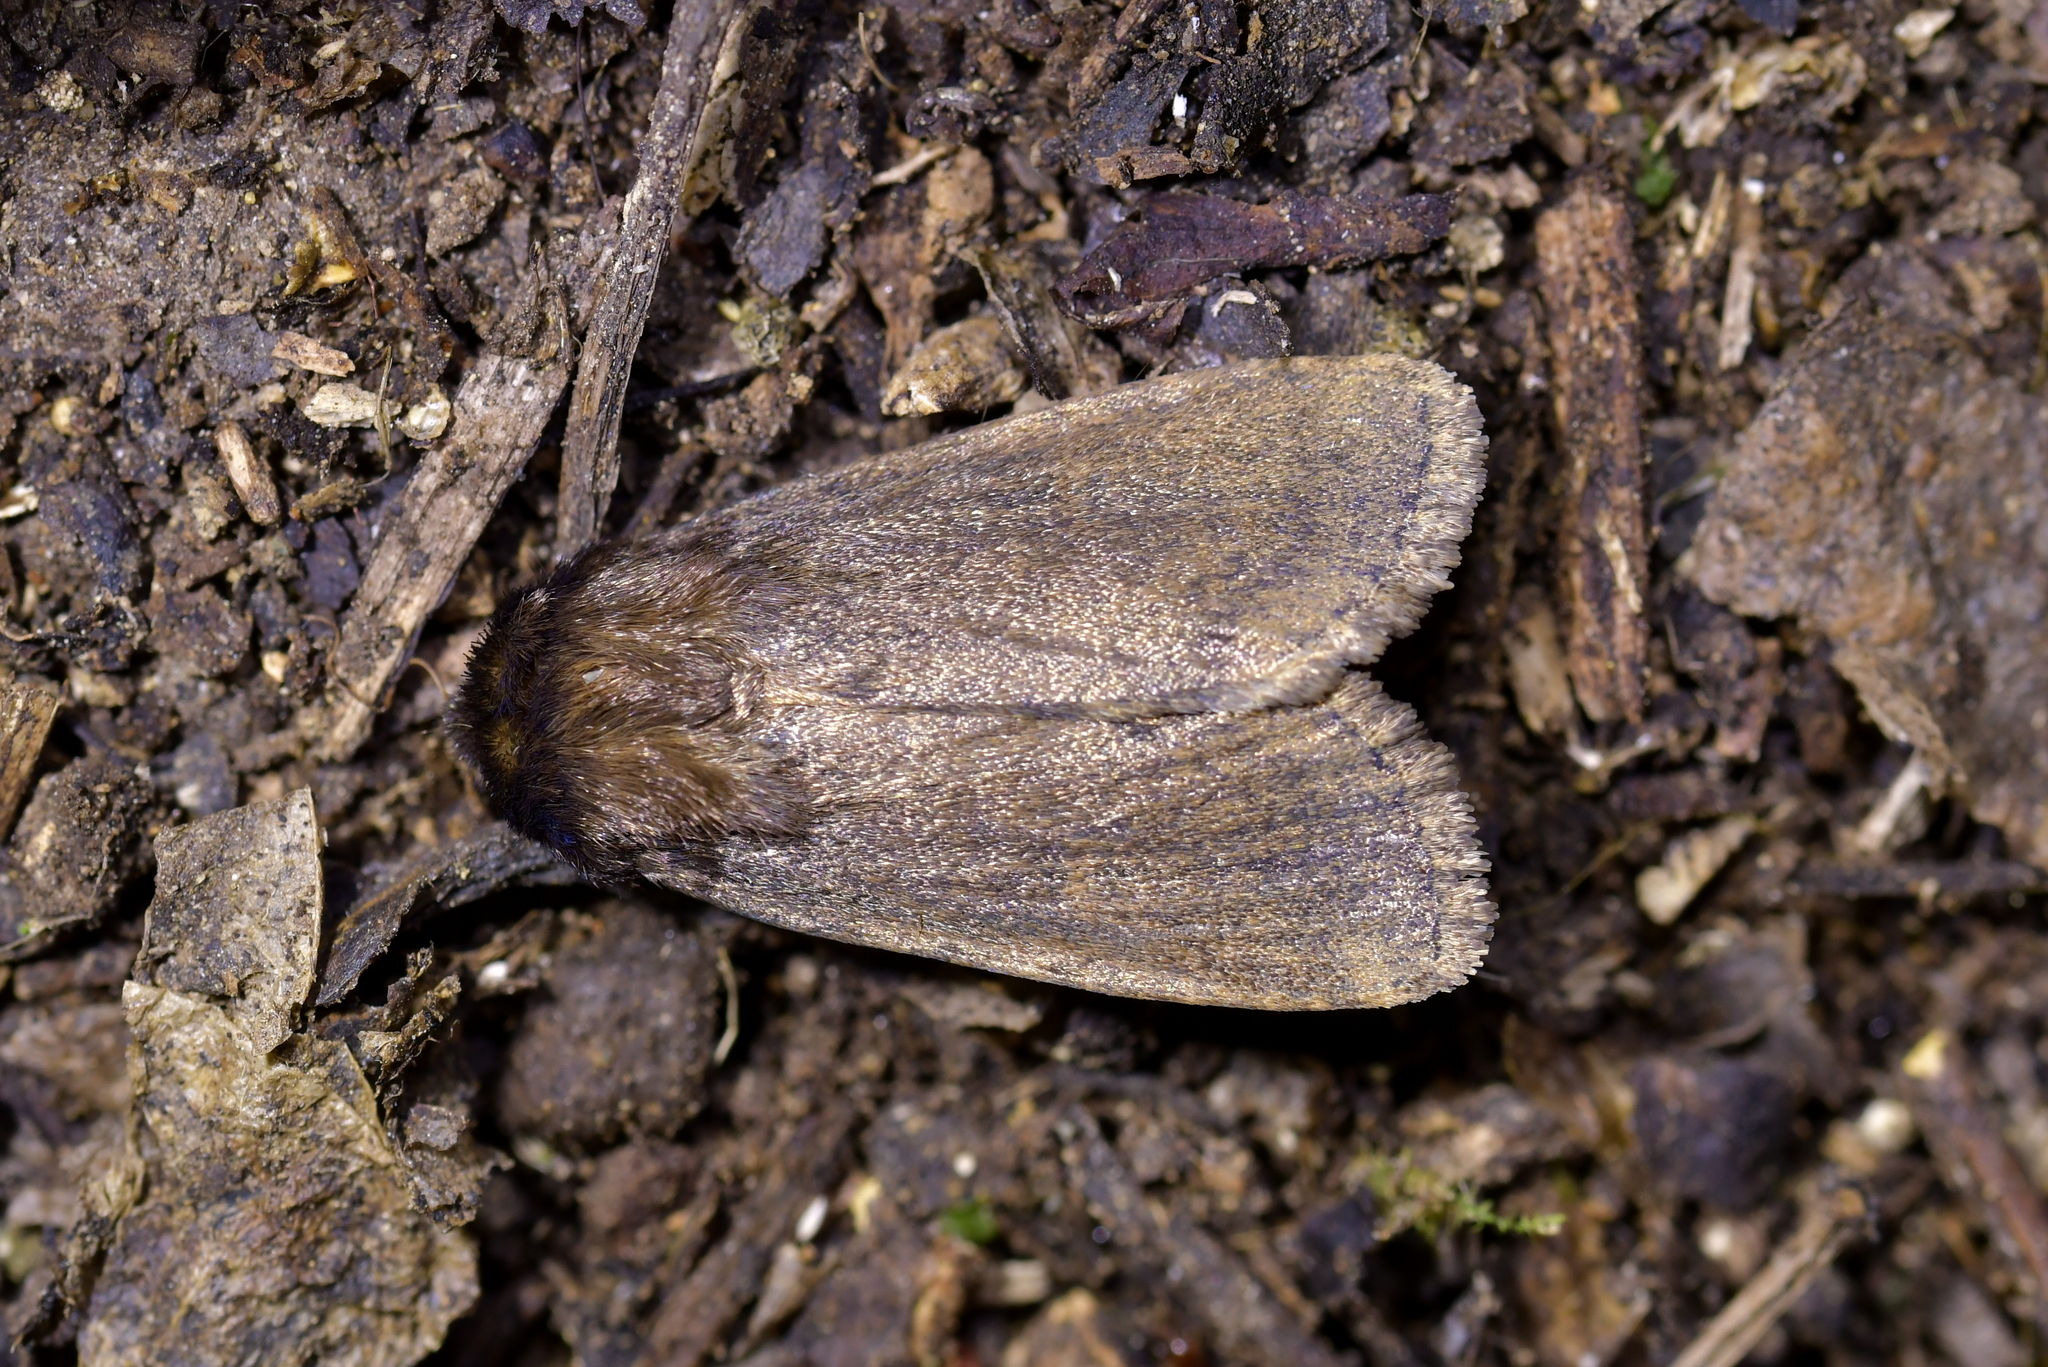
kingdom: Animalia
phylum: Arthropoda
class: Insecta
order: Lepidoptera
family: Noctuidae
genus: Bityla
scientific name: Bityla defigurata
